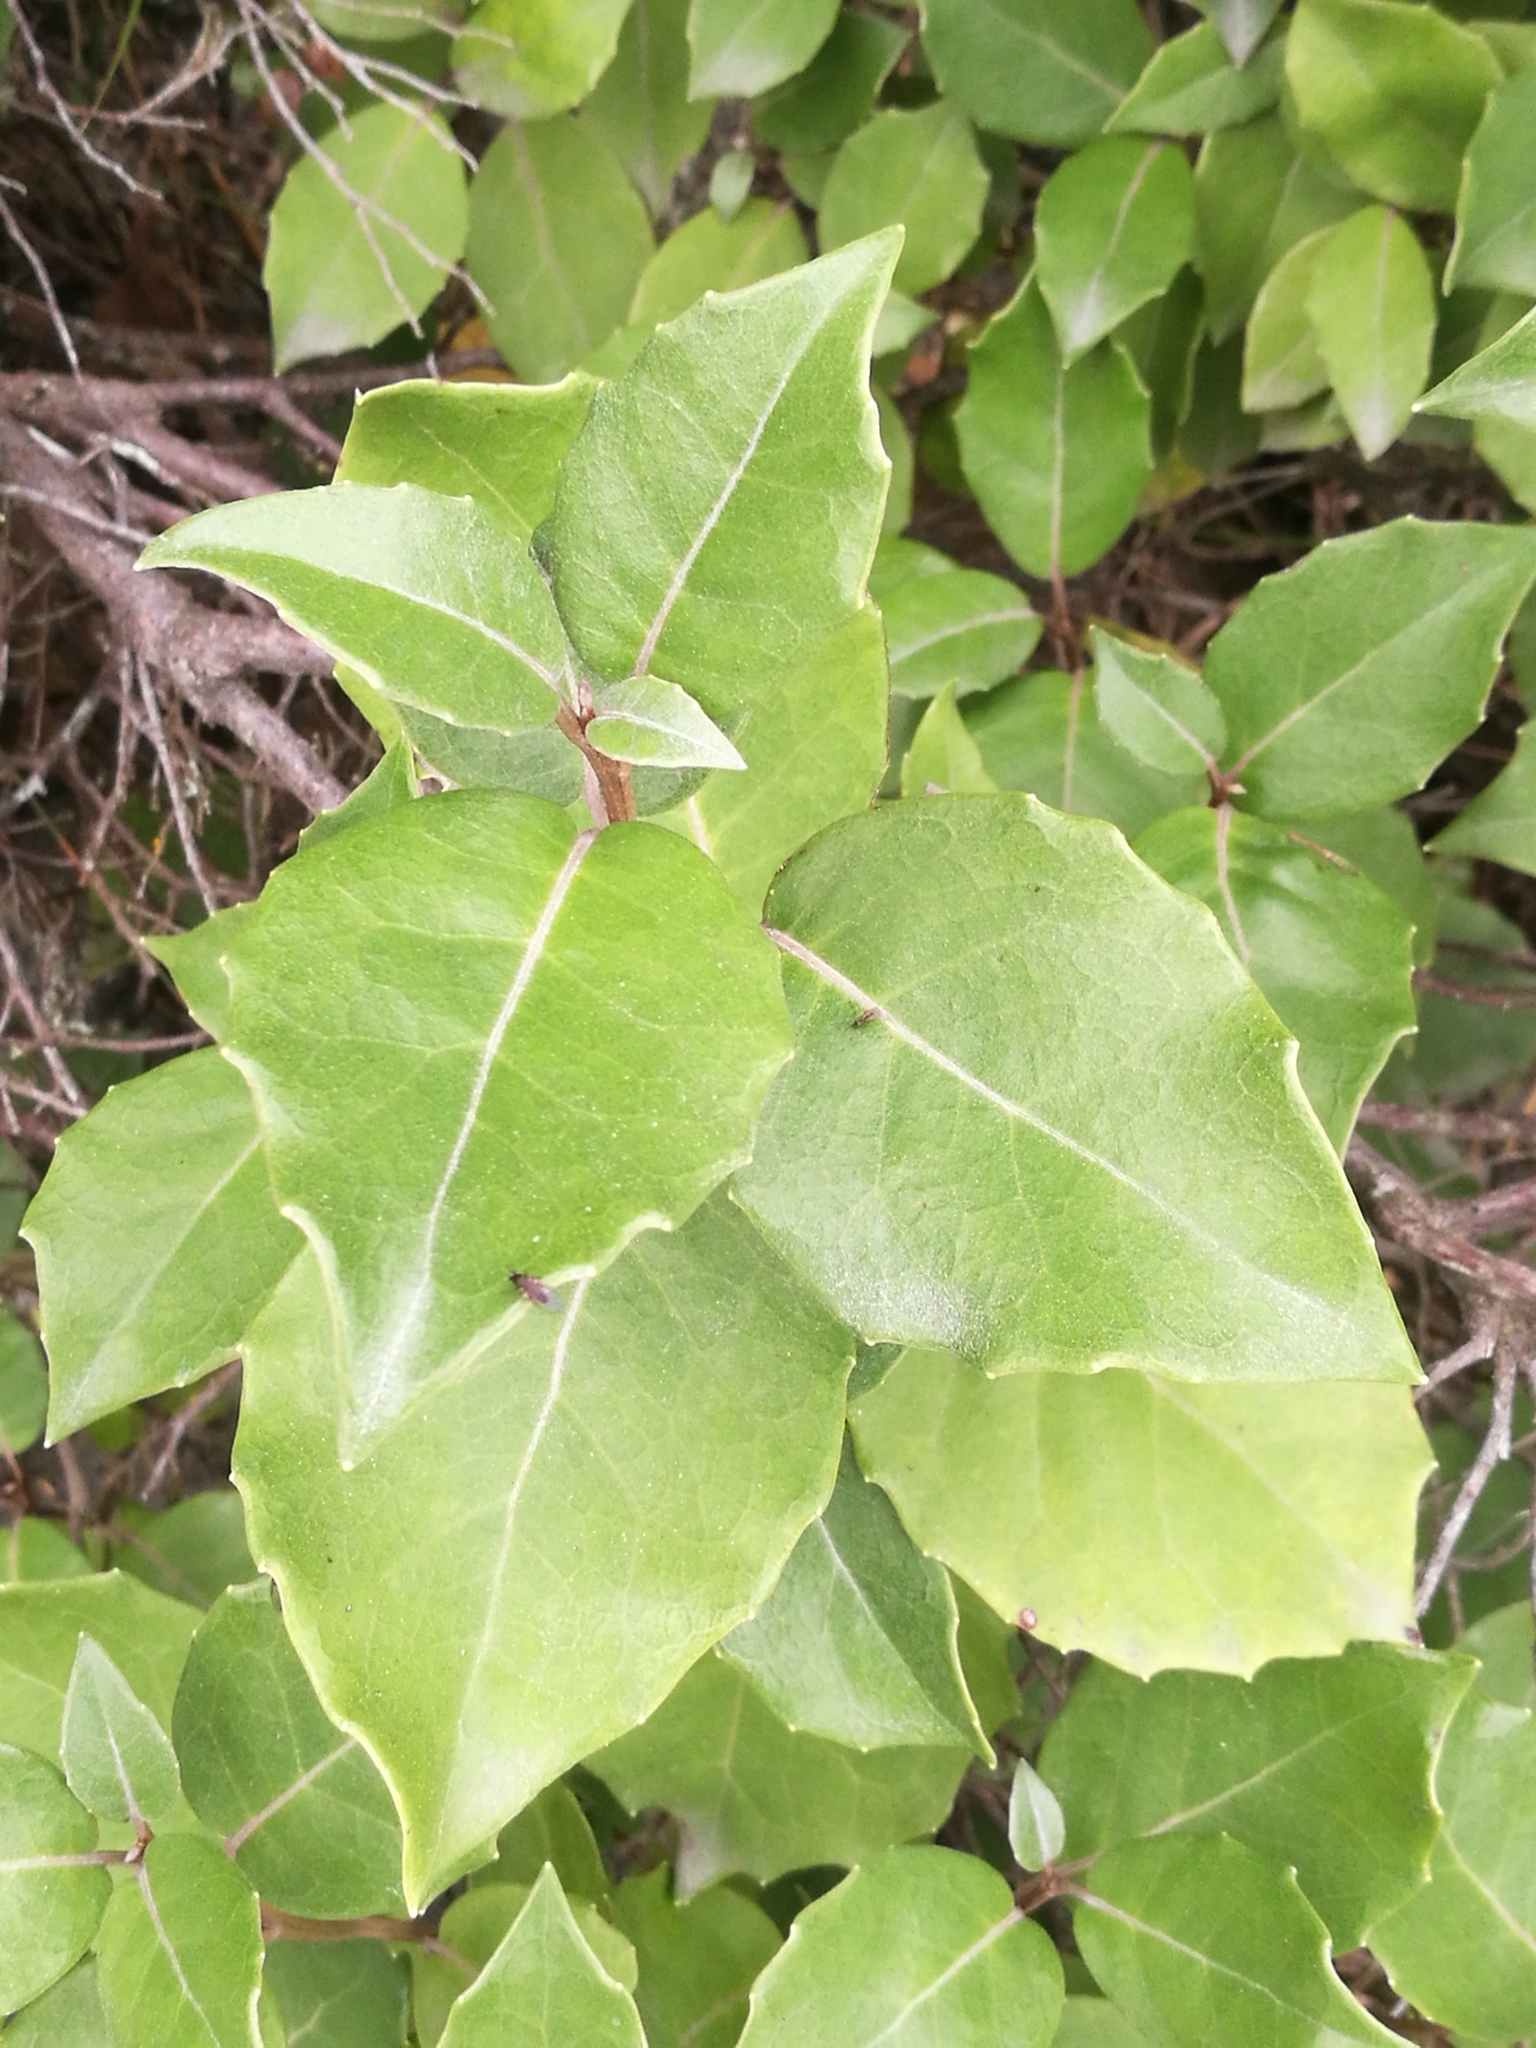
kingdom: Plantae
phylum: Tracheophyta
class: Magnoliopsida
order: Asterales
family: Asteraceae
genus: Olearia
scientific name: Olearia arborescens
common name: Glossy tree daisy
